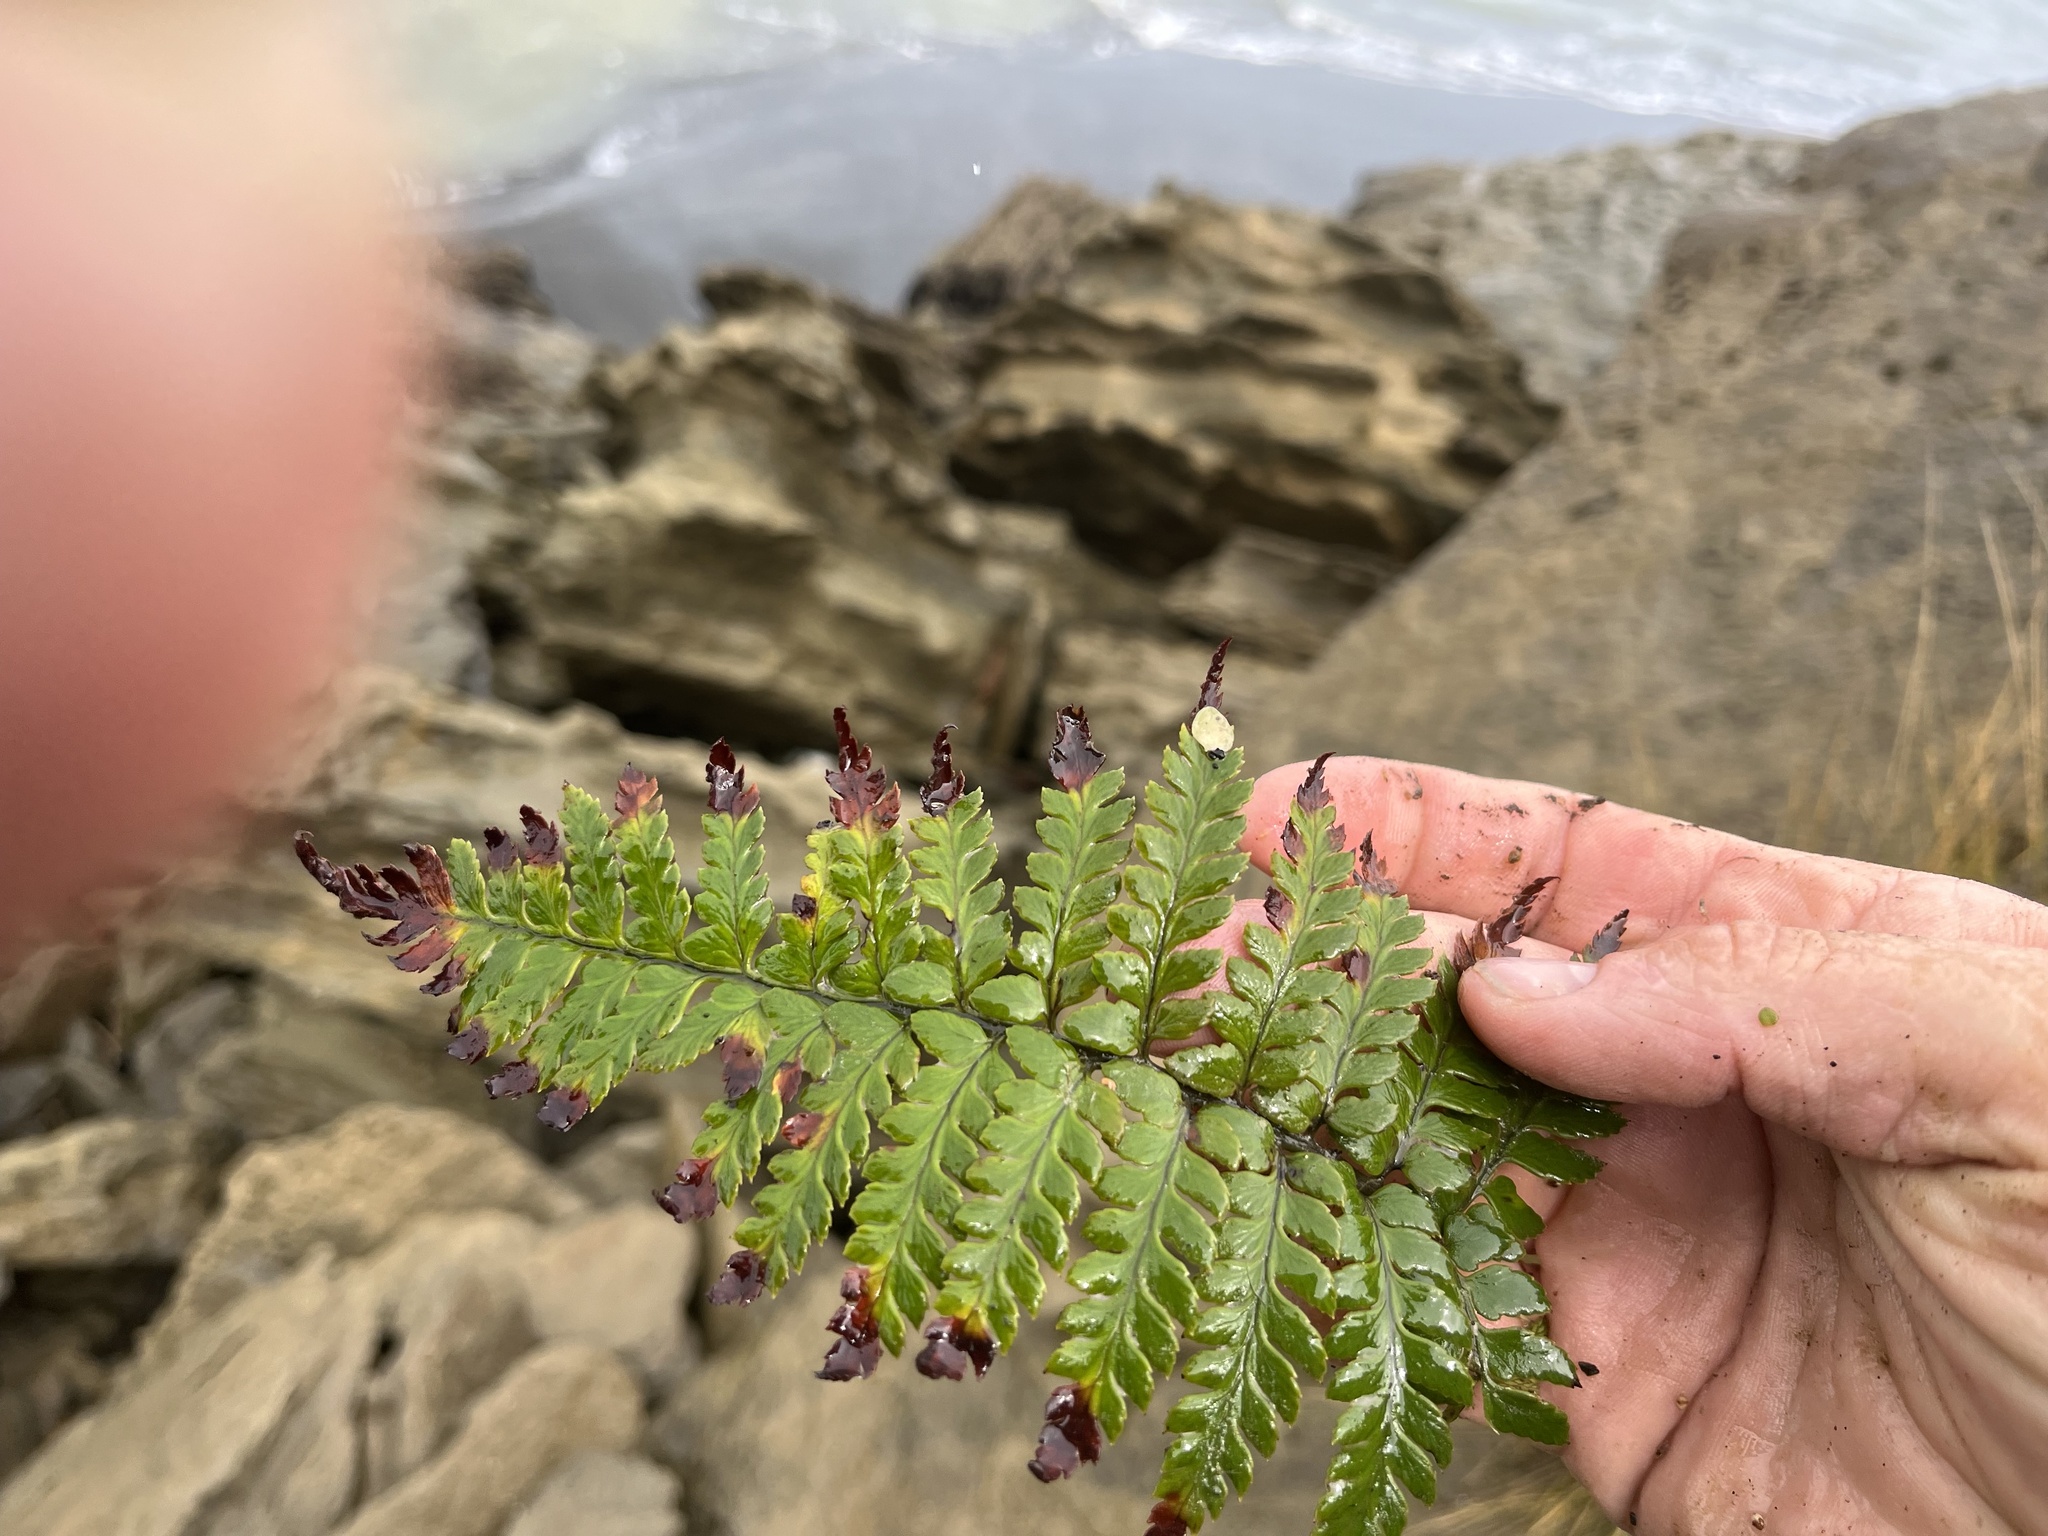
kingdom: Plantae
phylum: Tracheophyta
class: Polypodiopsida
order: Polypodiales
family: Dryopteridaceae
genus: Polystichum
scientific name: Polystichum neozelandicum
